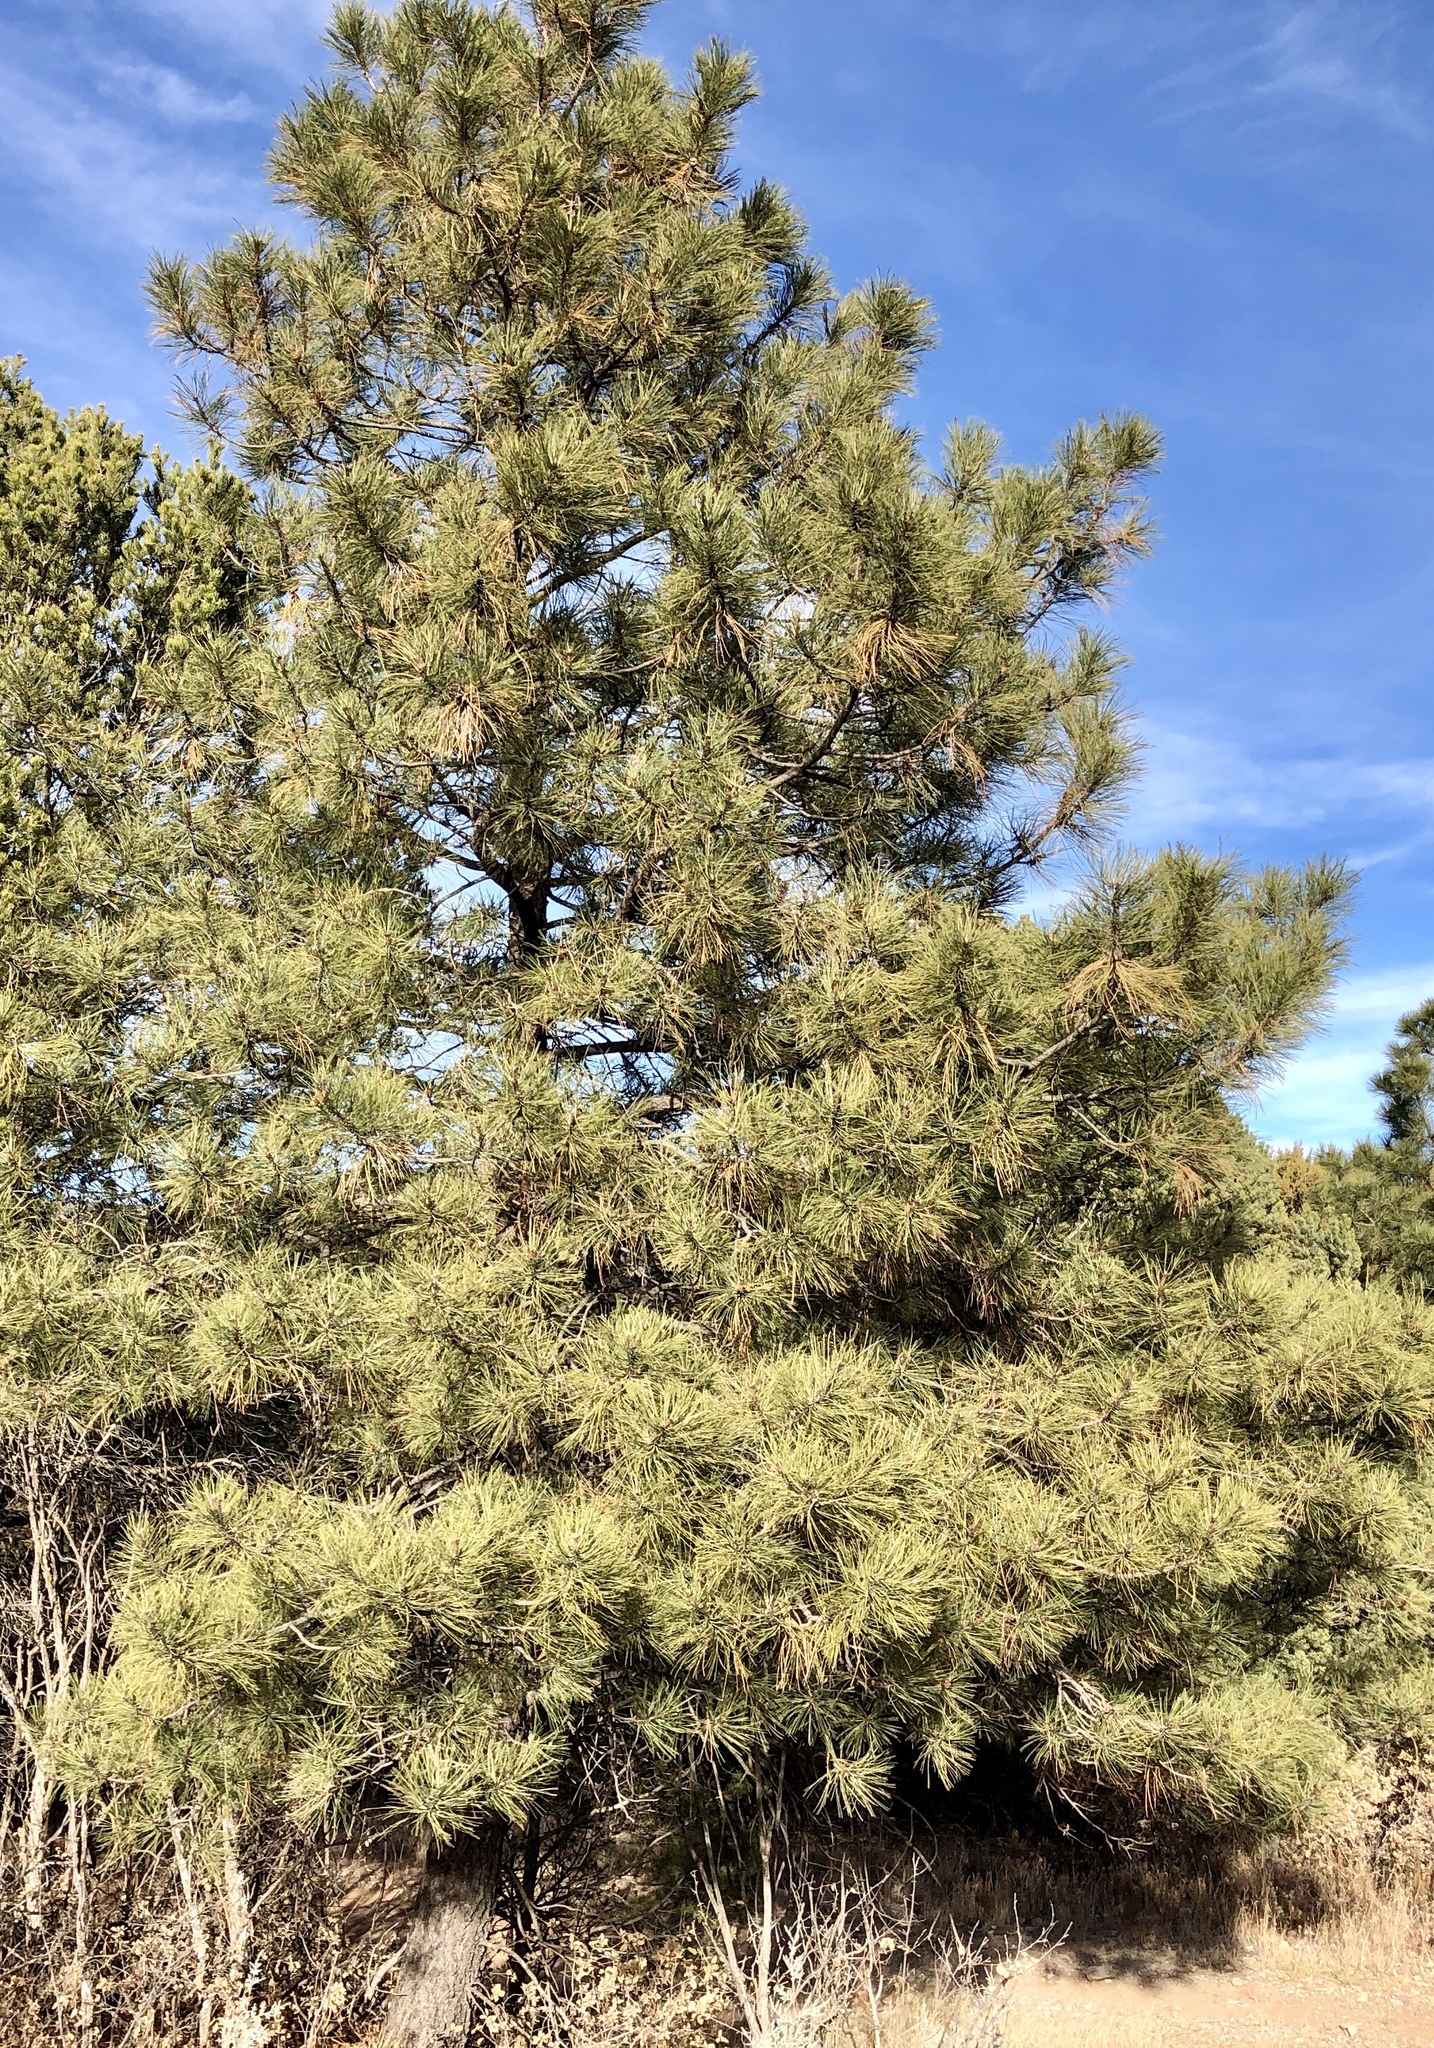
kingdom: Plantae
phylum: Tracheophyta
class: Pinopsida
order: Pinales
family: Pinaceae
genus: Pinus
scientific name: Pinus ponderosa
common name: Western yellow-pine
